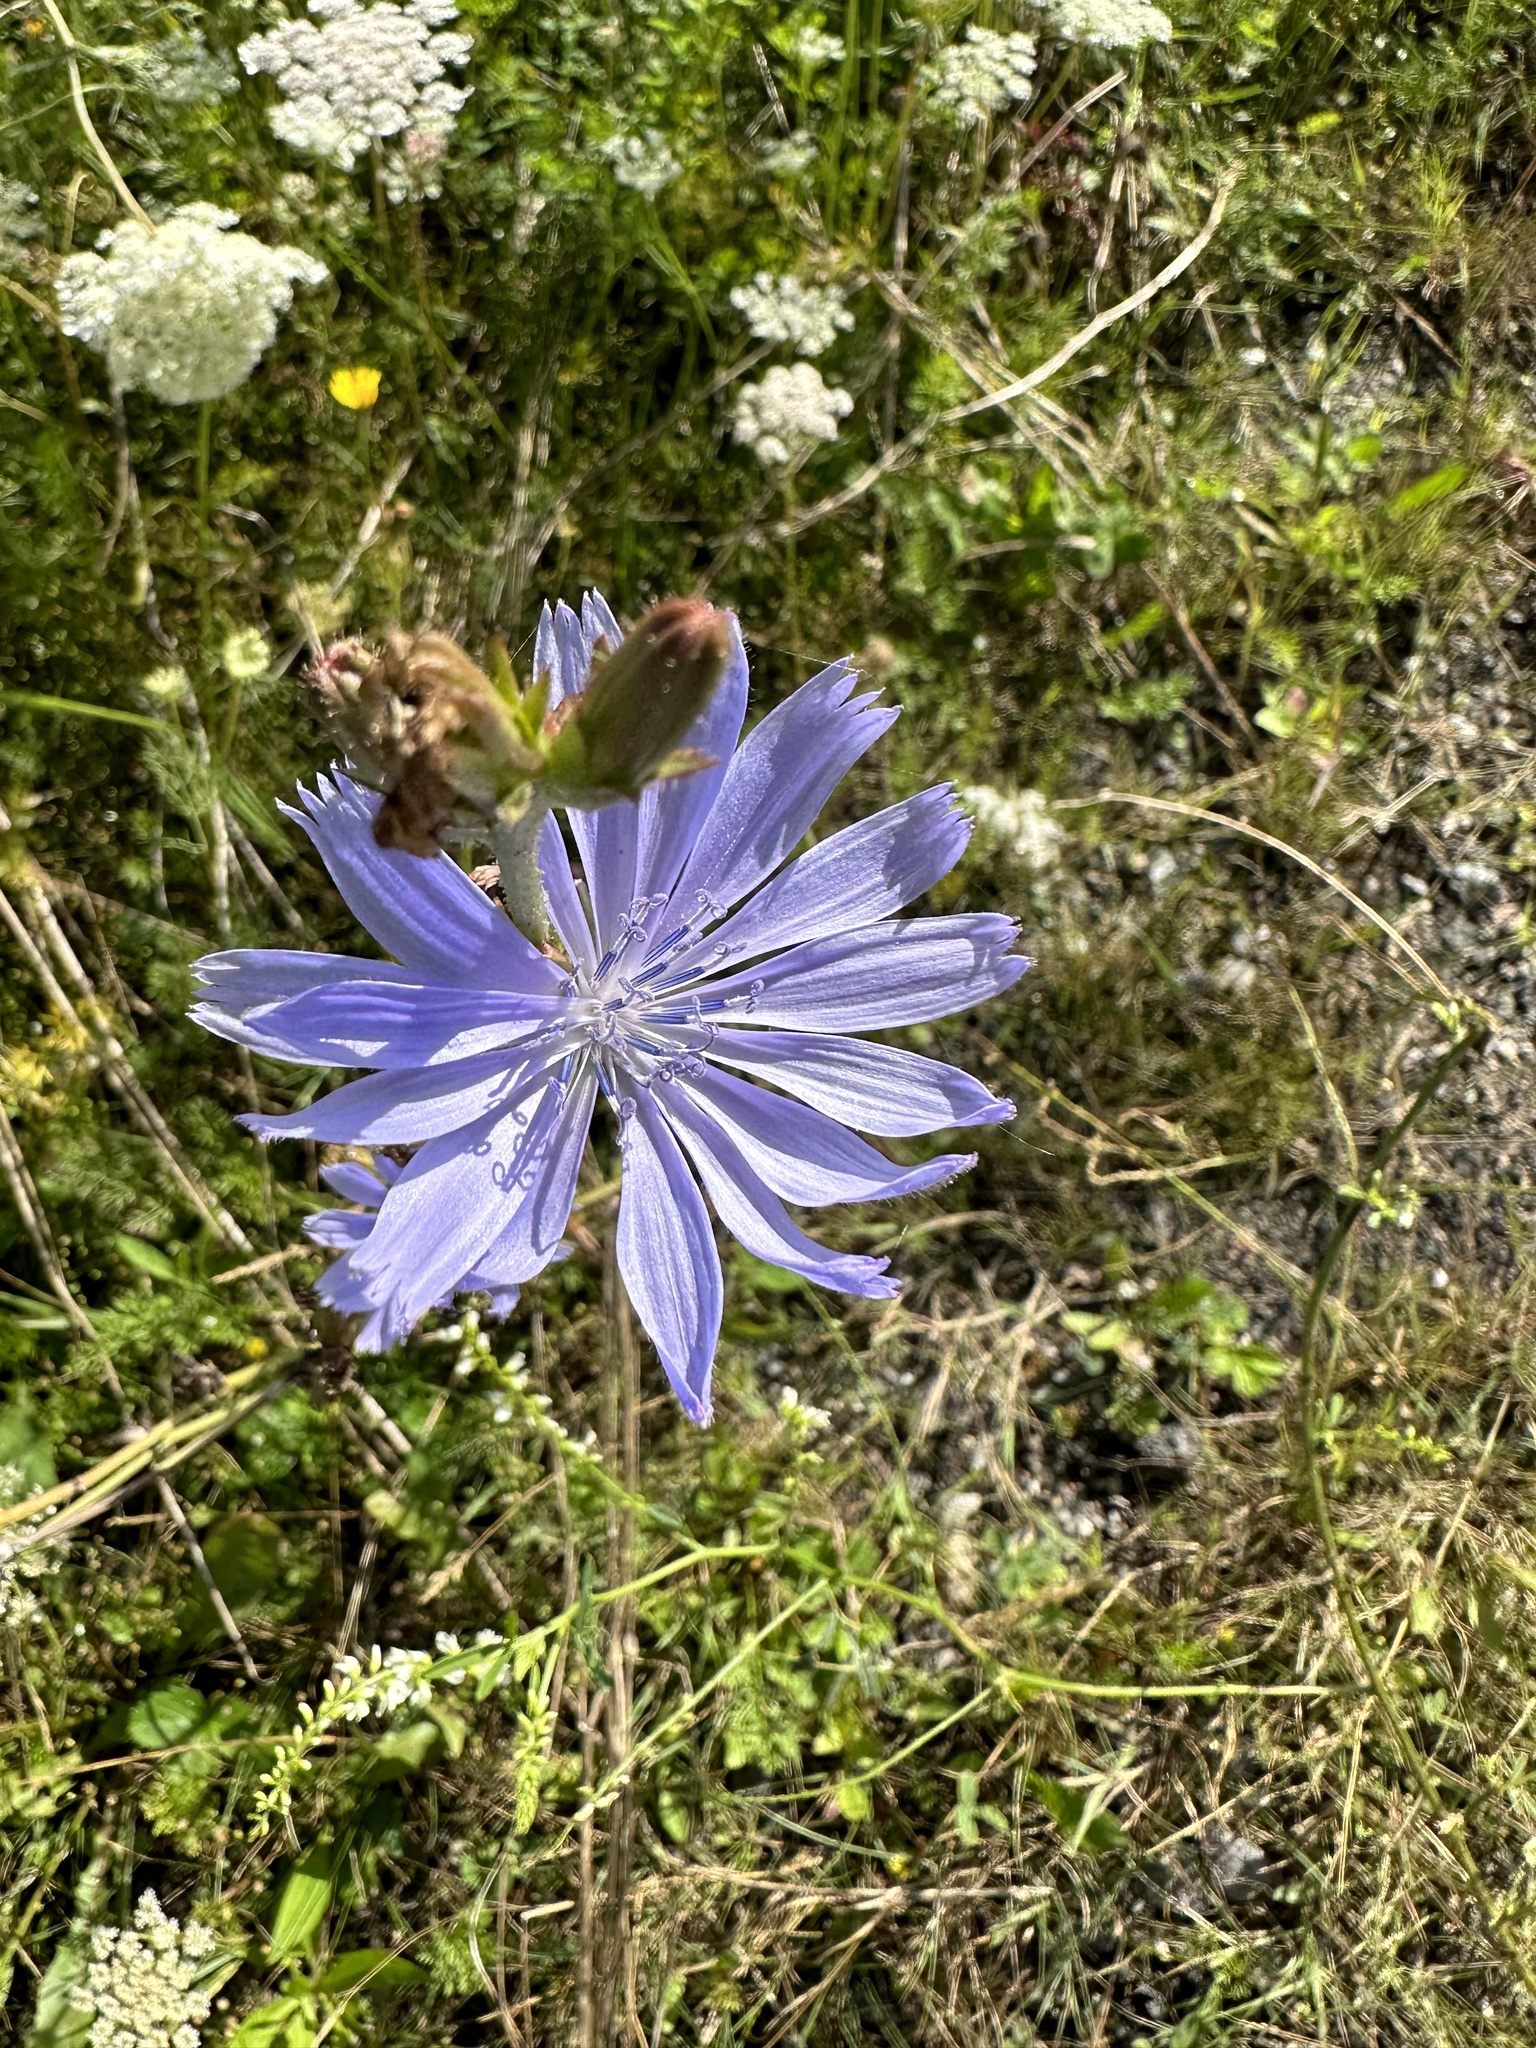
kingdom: Plantae
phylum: Tracheophyta
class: Magnoliopsida
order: Asterales
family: Asteraceae
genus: Cichorium
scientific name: Cichorium intybus
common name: Chicory
